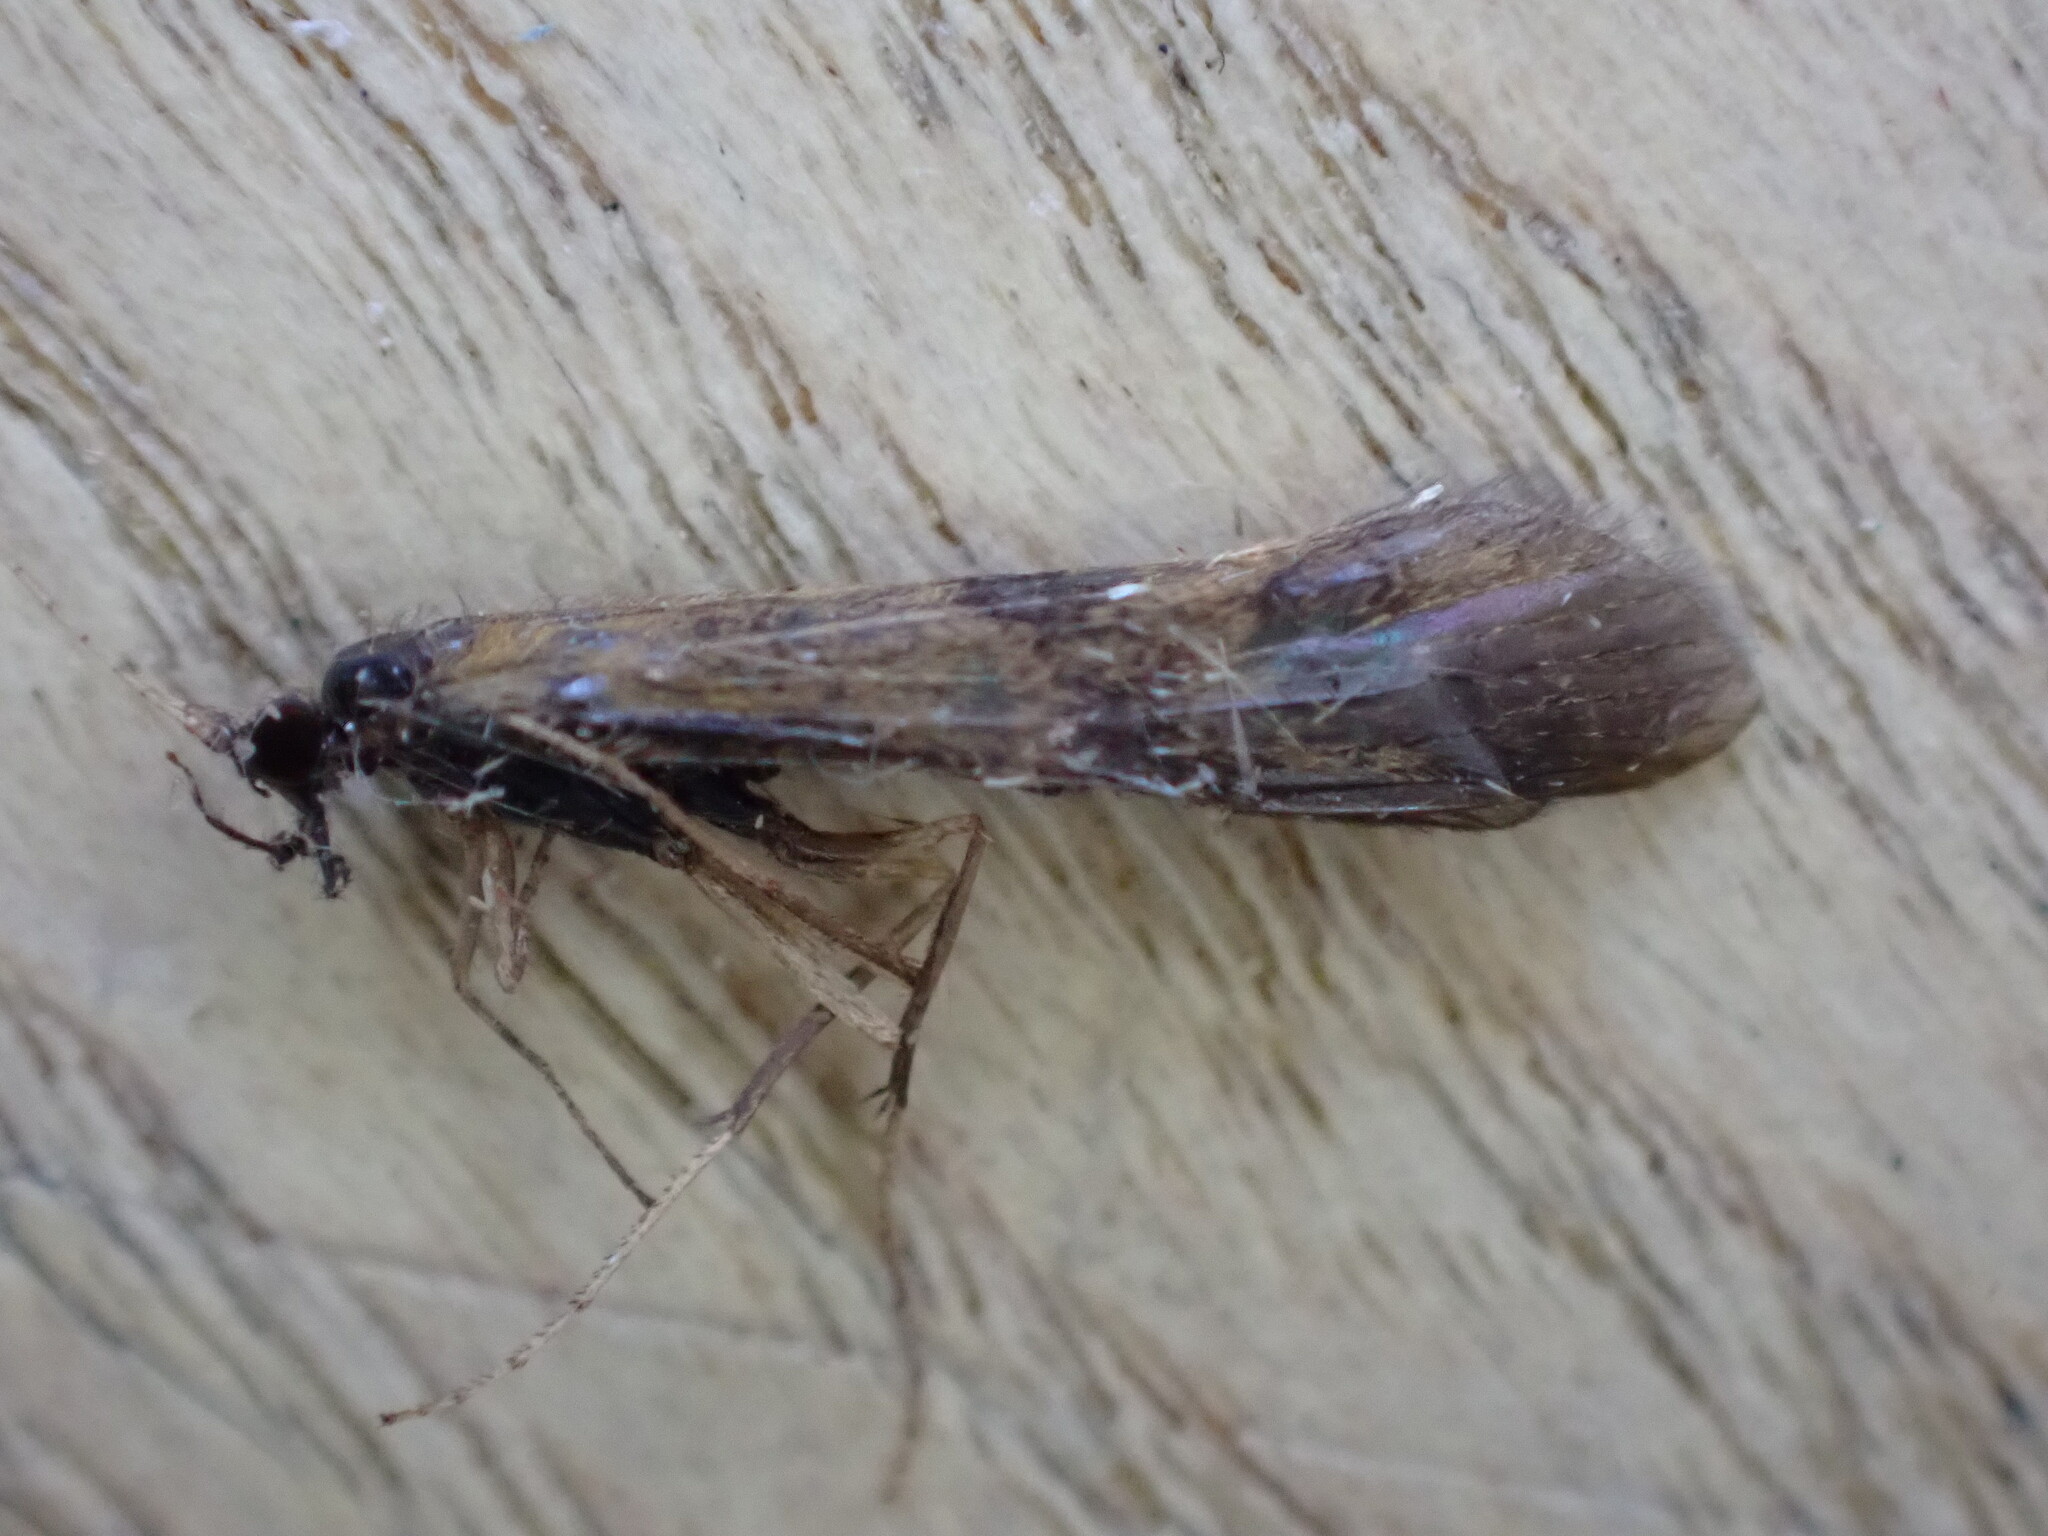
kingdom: Animalia
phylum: Arthropoda
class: Insecta
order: Trichoptera
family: Leptoceridae
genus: Mystacides
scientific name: Mystacides longicornis
